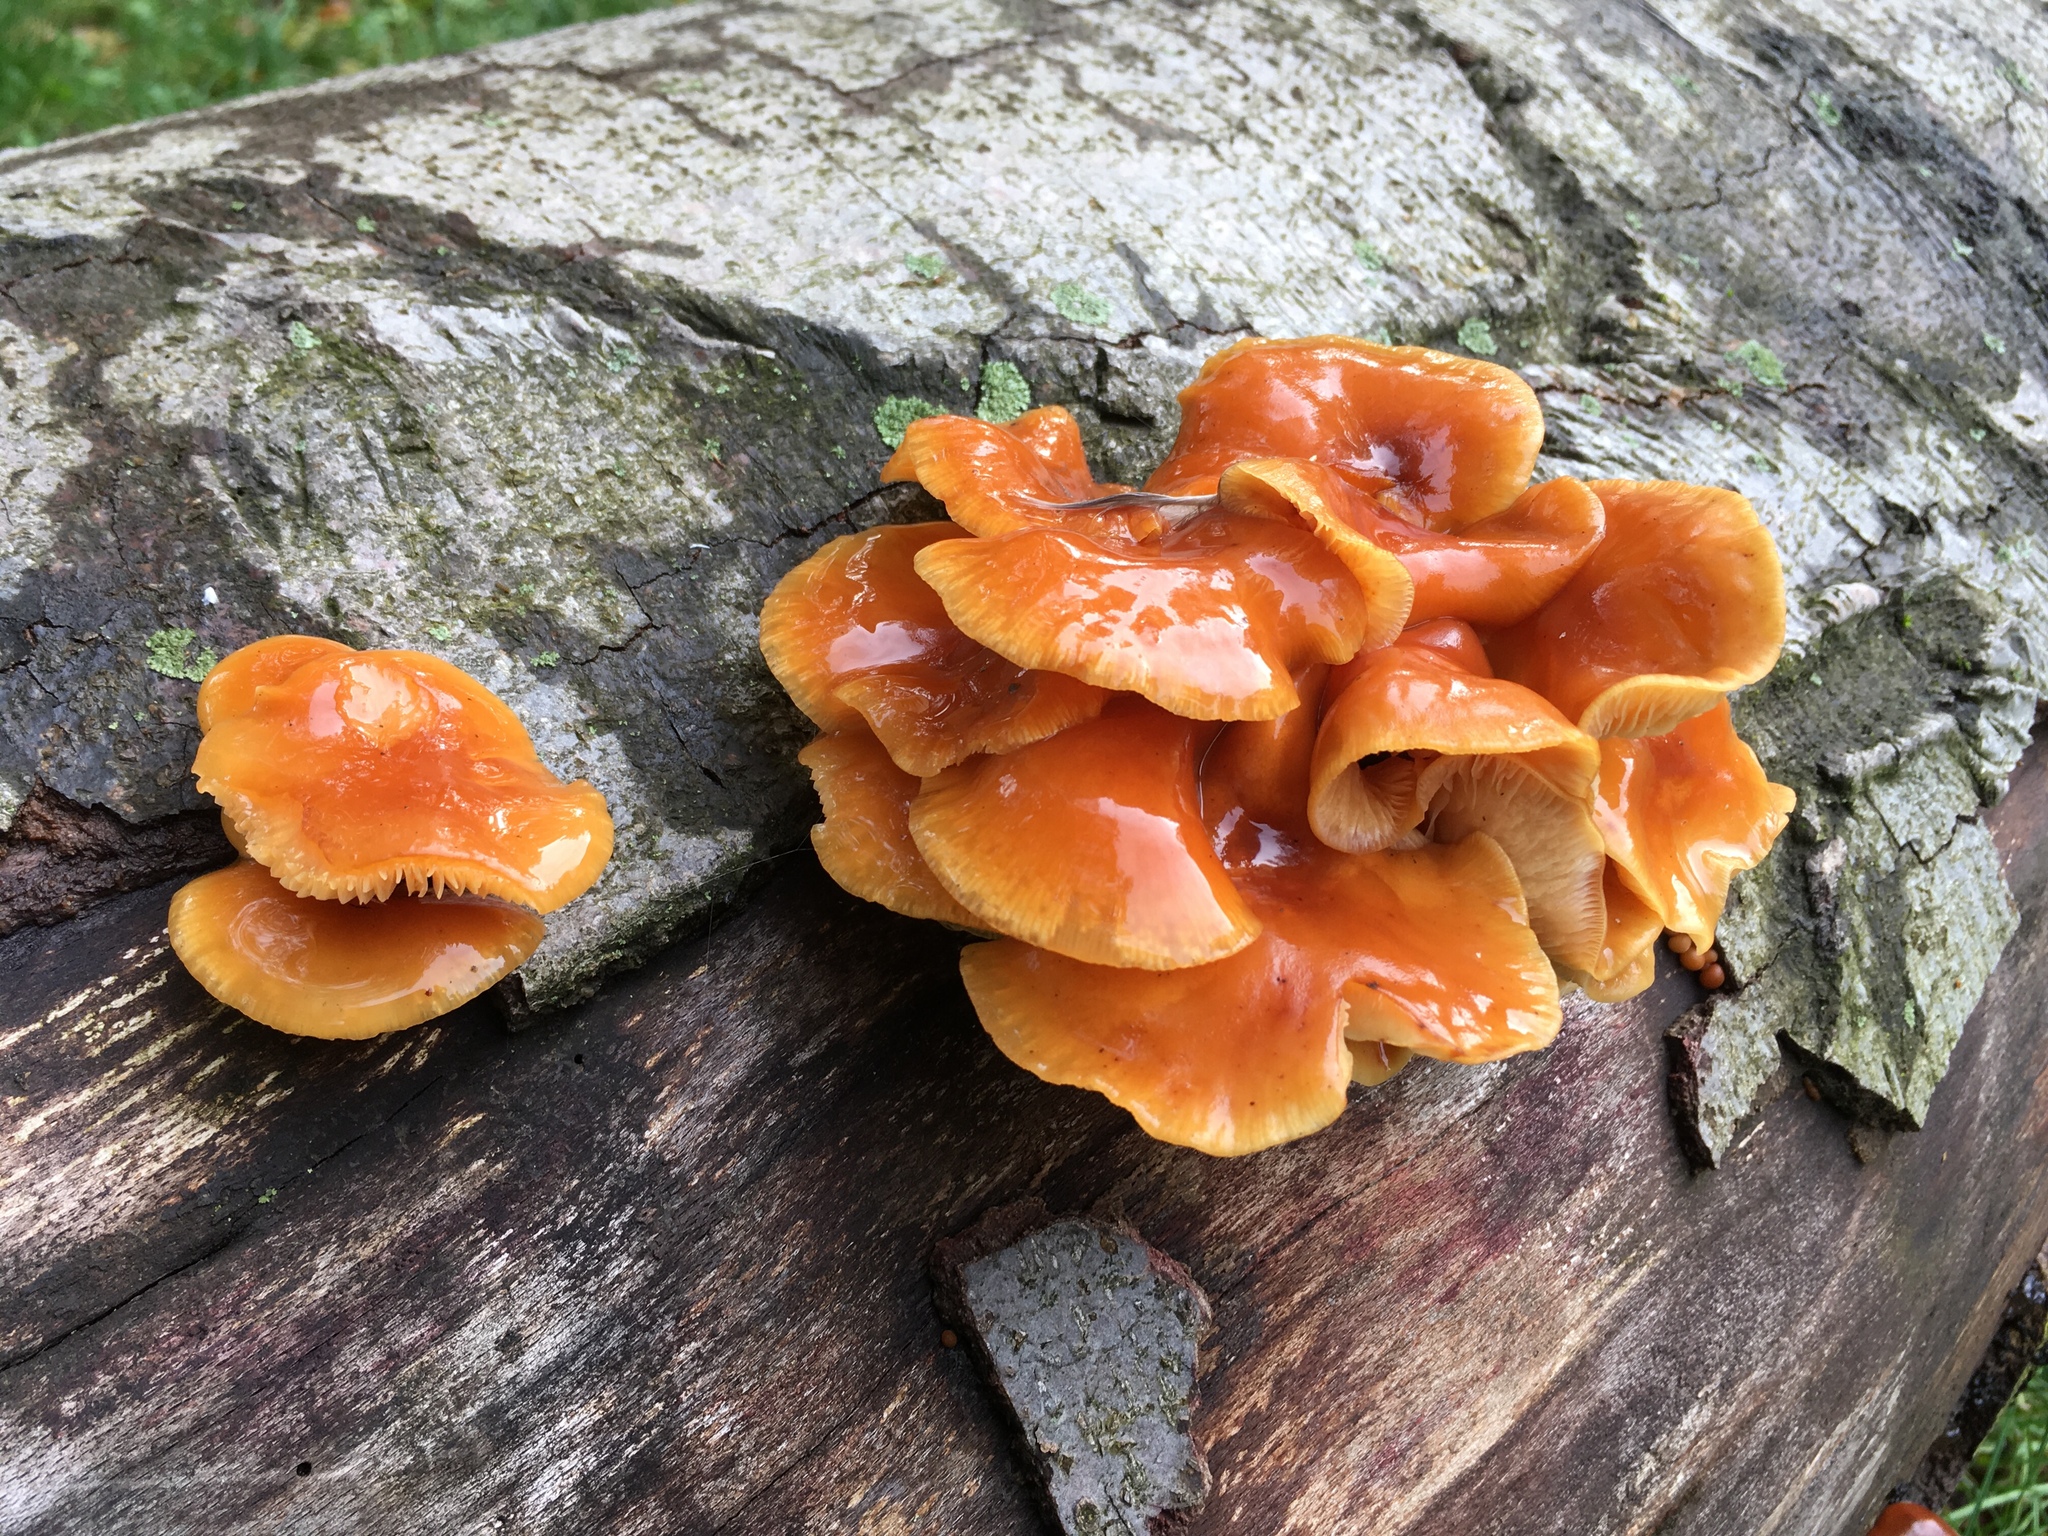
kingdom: Fungi
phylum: Basidiomycota
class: Agaricomycetes
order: Agaricales
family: Physalacriaceae
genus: Flammulina
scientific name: Flammulina
